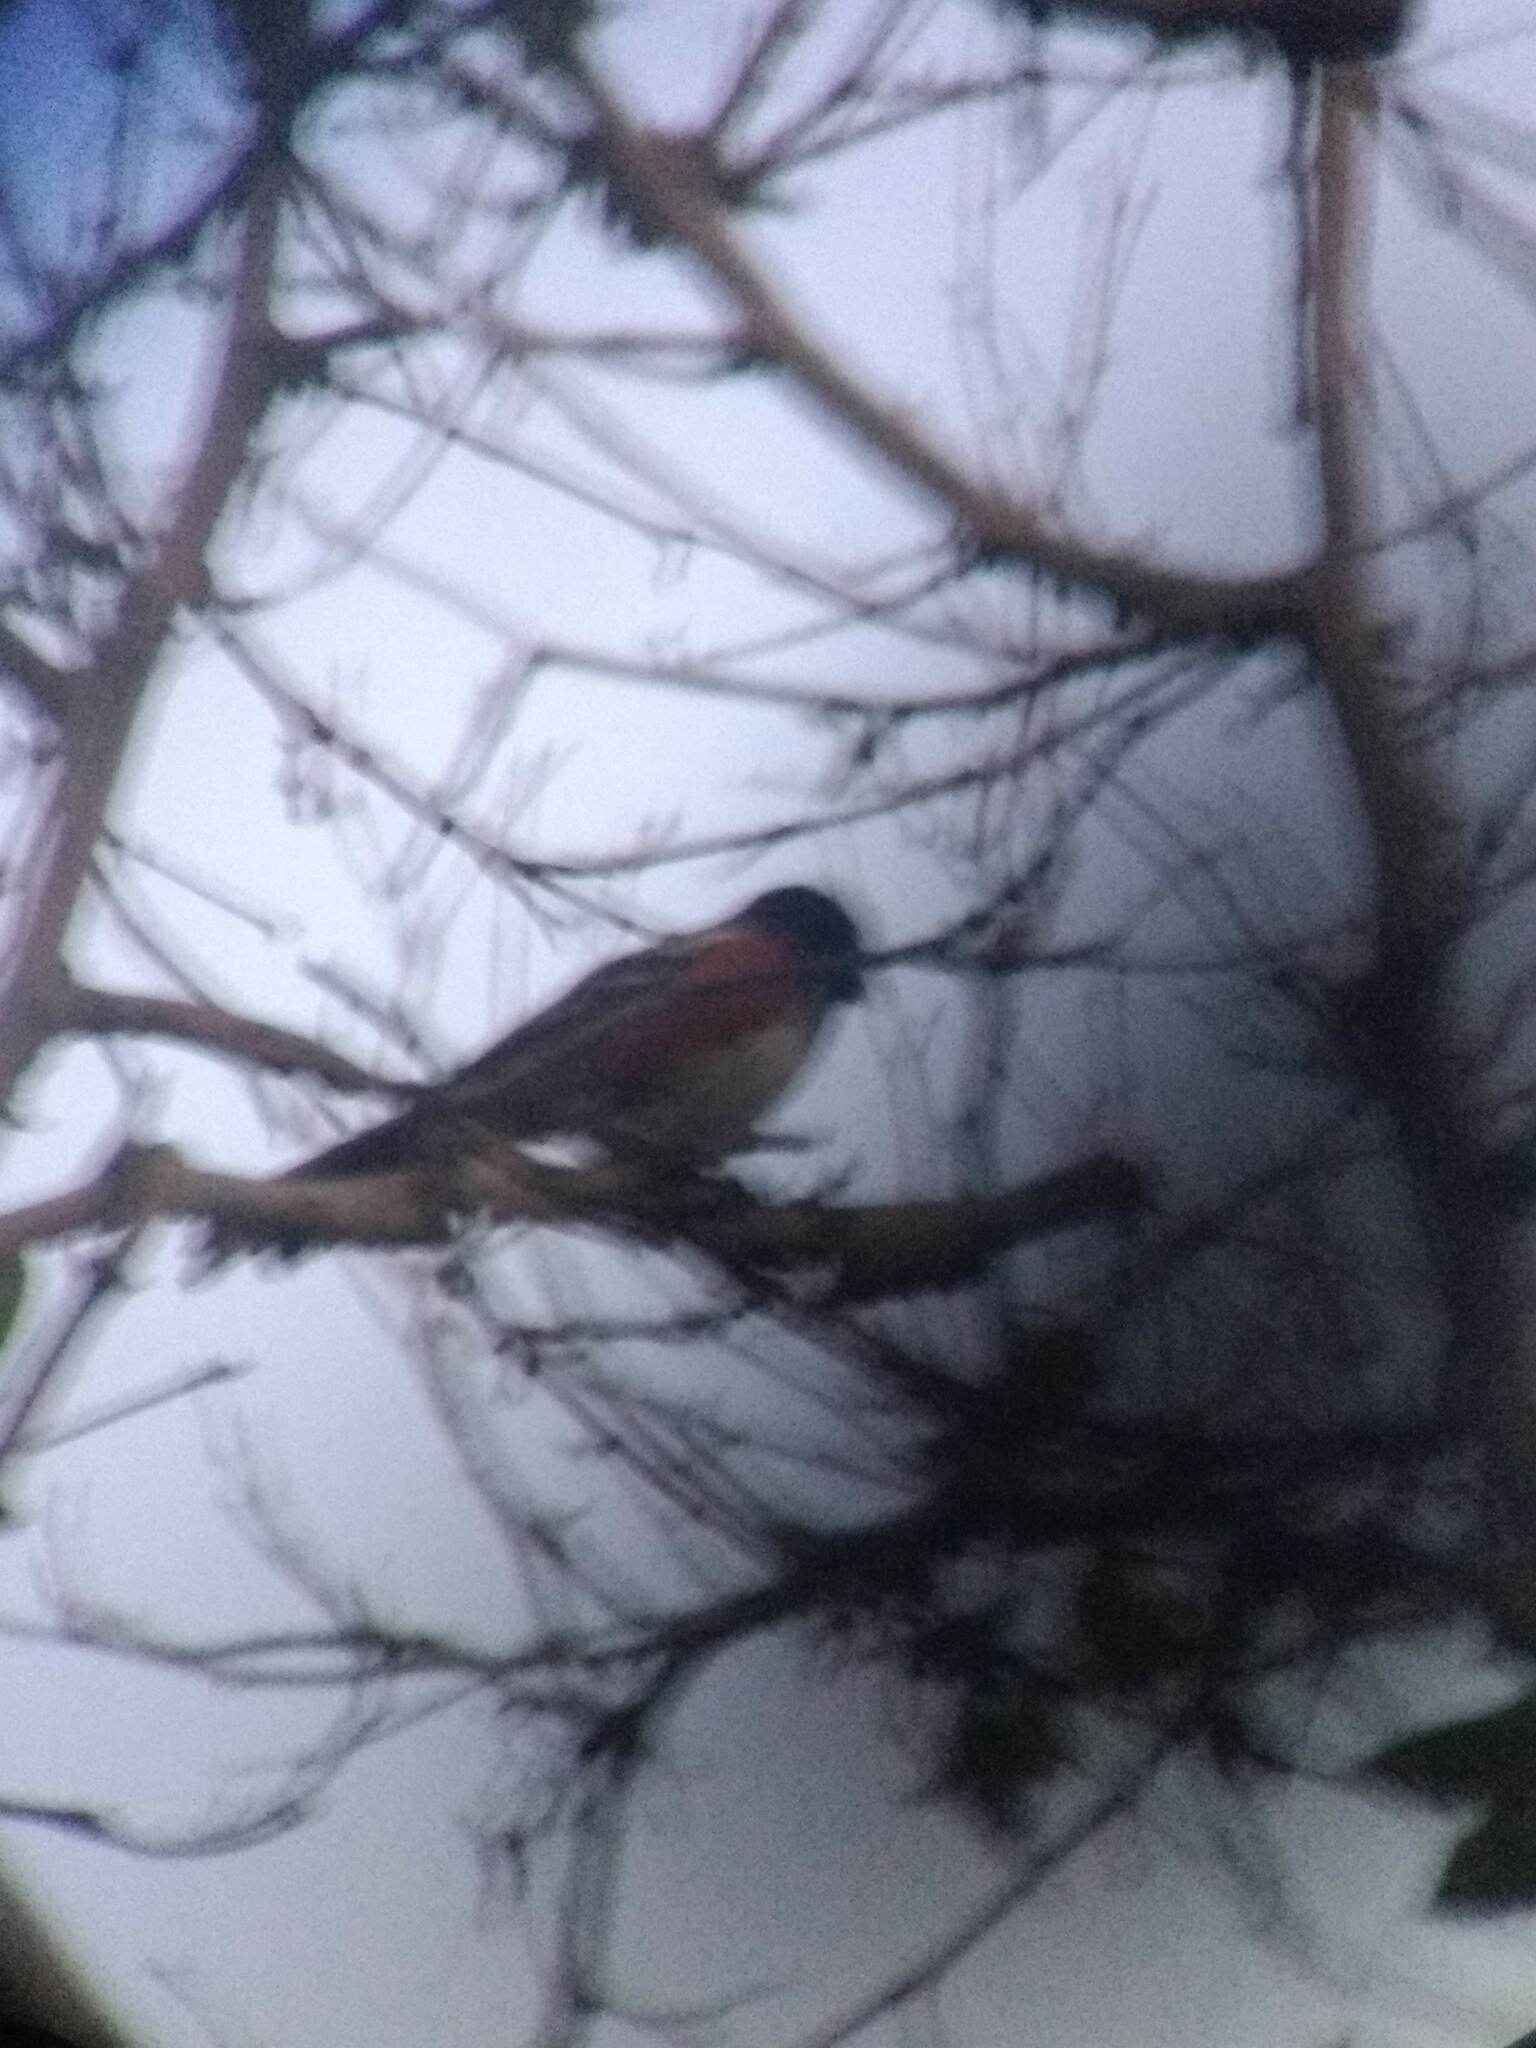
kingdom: Animalia
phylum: Chordata
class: Aves
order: Passeriformes
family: Passerellidae
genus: Pipilo
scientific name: Pipilo maculatus
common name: Spotted towhee
